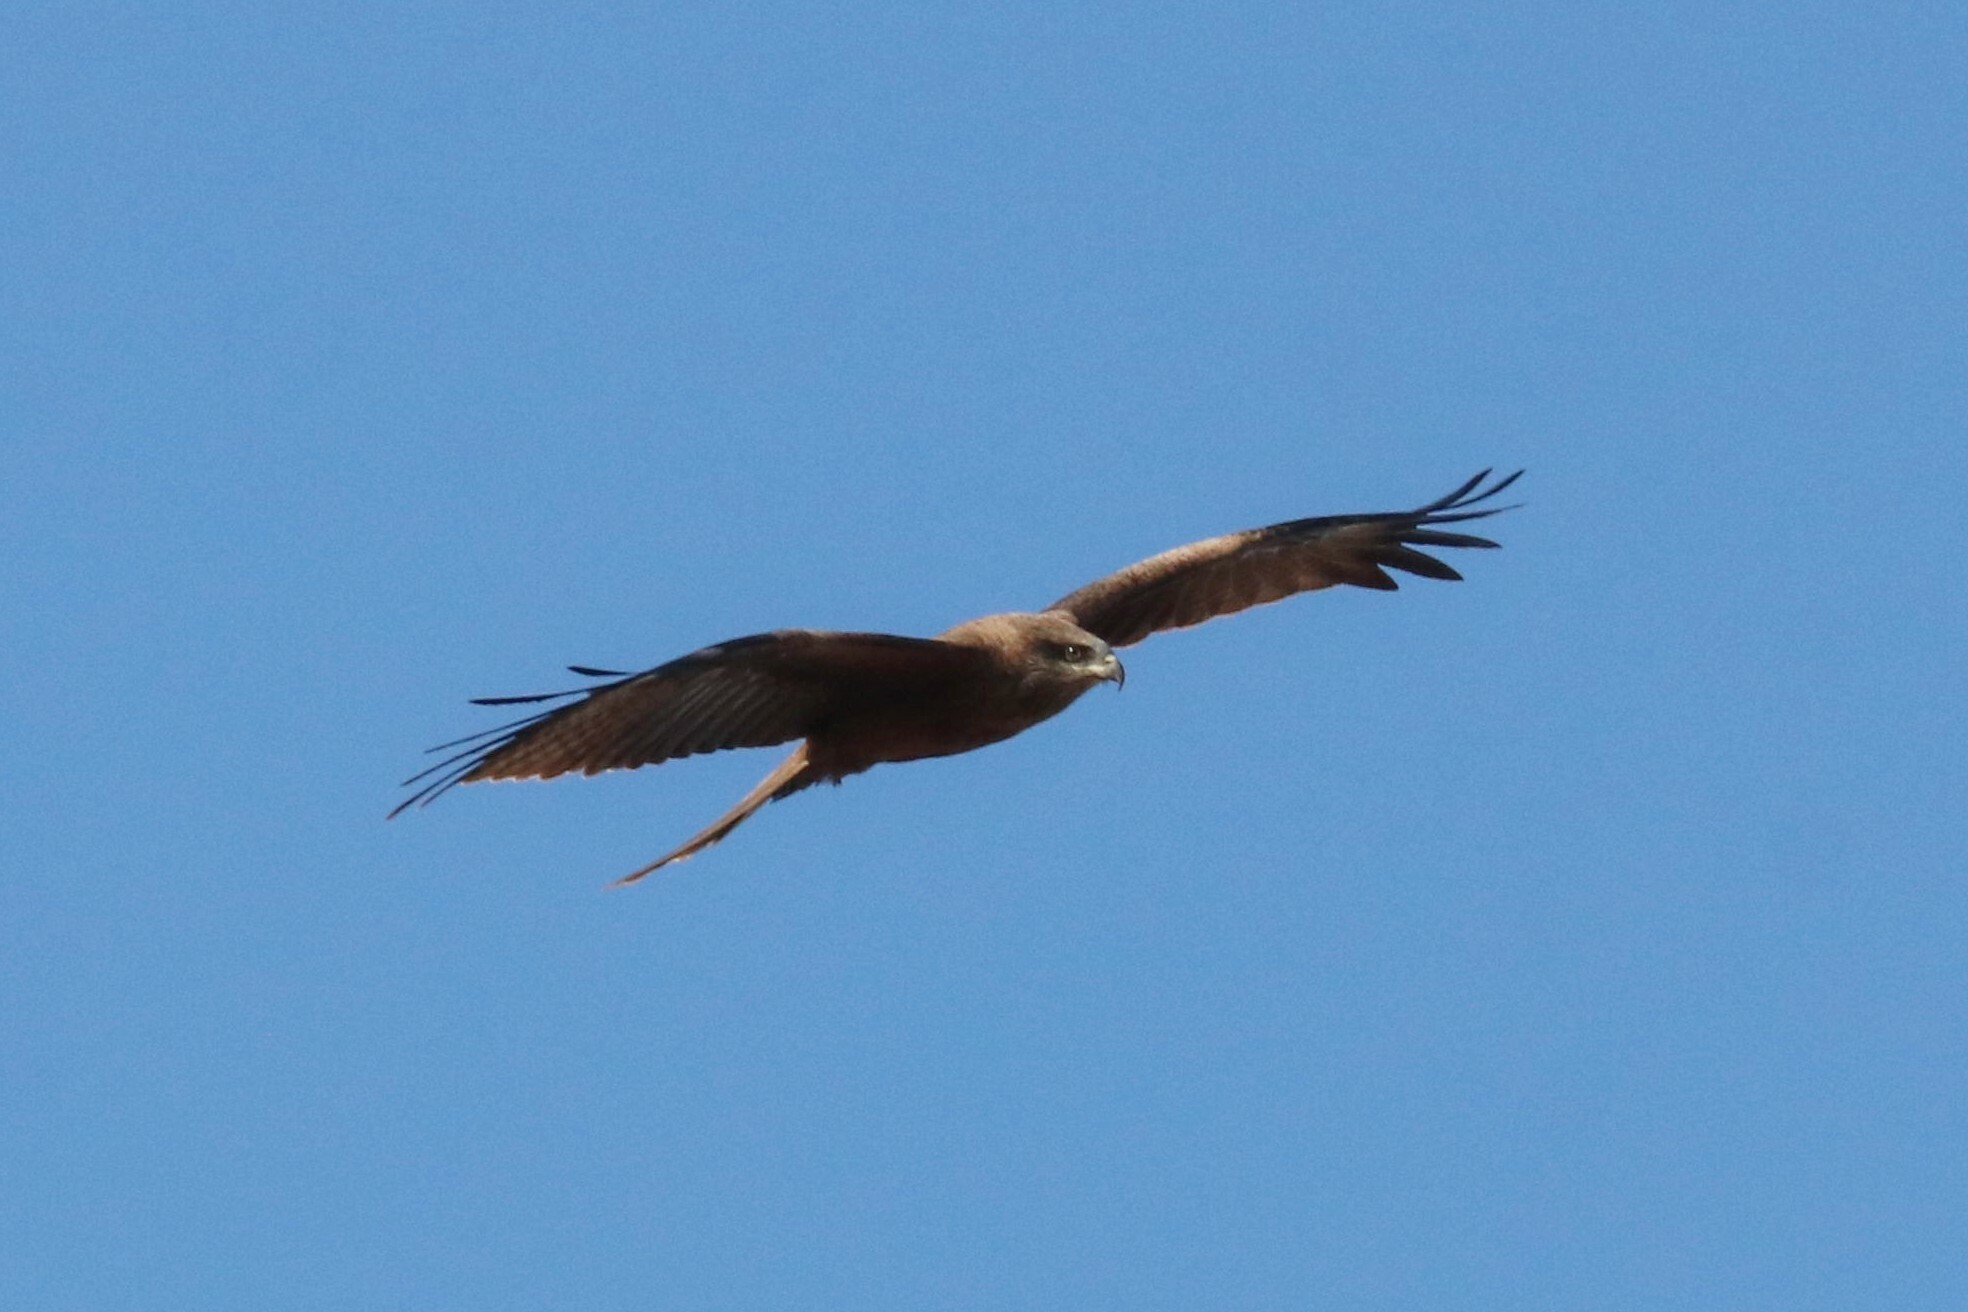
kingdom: Animalia
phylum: Chordata
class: Aves
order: Accipitriformes
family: Accipitridae
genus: Milvus
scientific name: Milvus migrans
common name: Black kite
